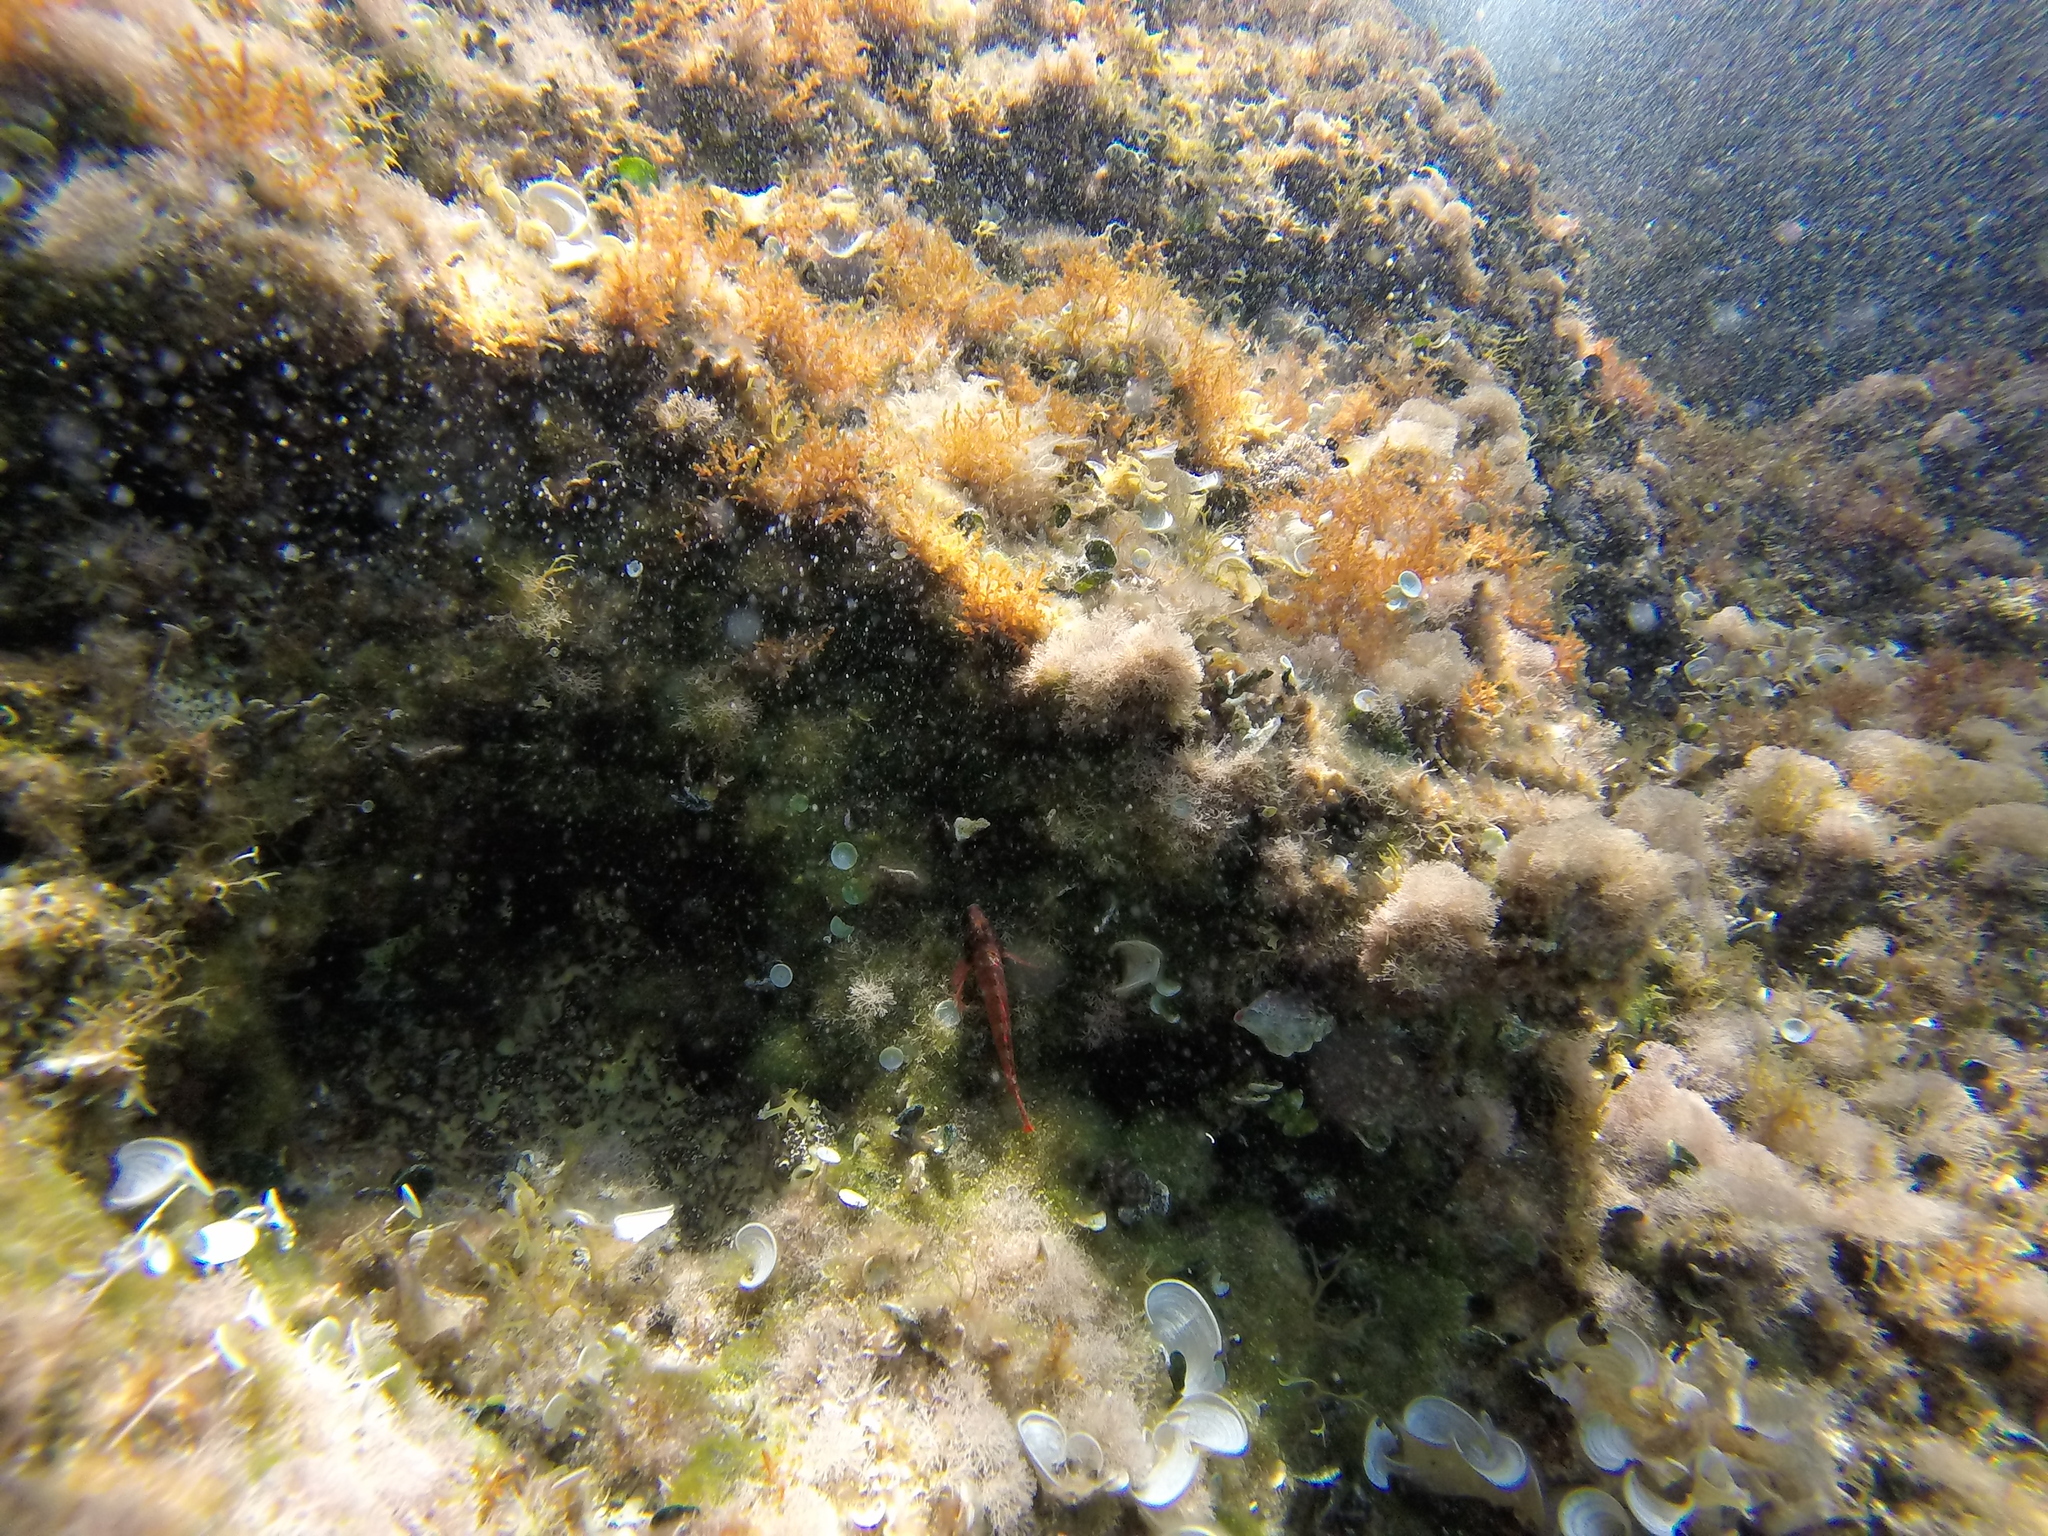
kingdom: Animalia
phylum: Chordata
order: Perciformes
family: Tripterygiidae
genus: Tripterygion
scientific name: Tripterygion tripteronotum
